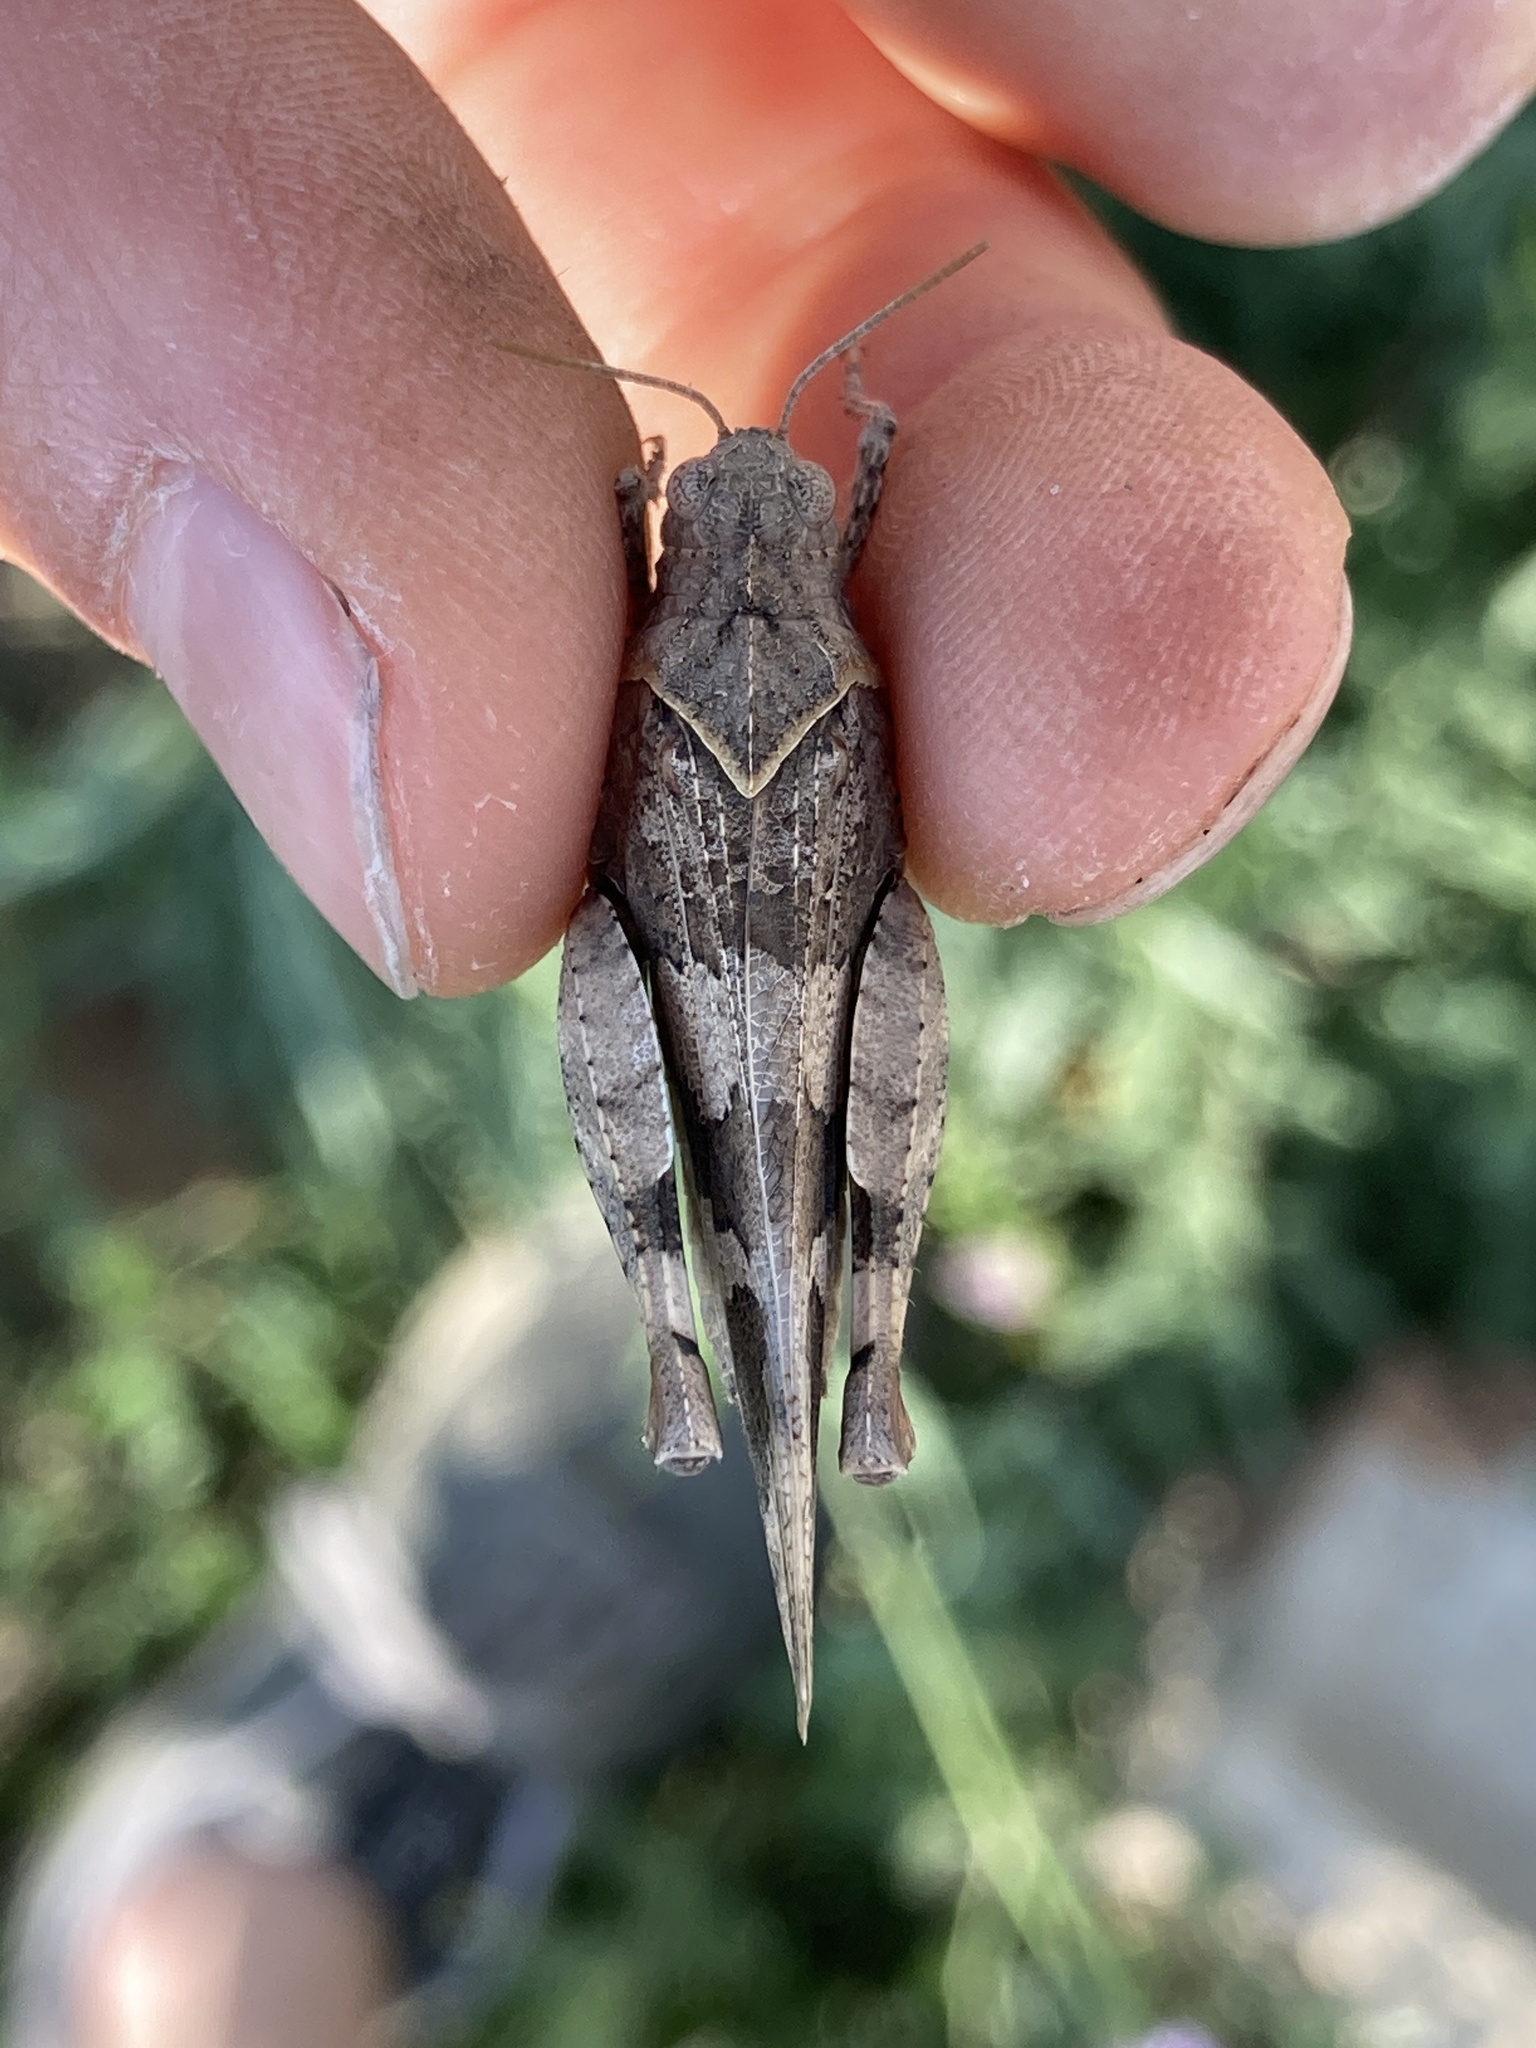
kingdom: Animalia
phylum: Arthropoda
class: Insecta
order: Orthoptera
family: Acrididae
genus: Oedipoda
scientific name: Oedipoda miniata
